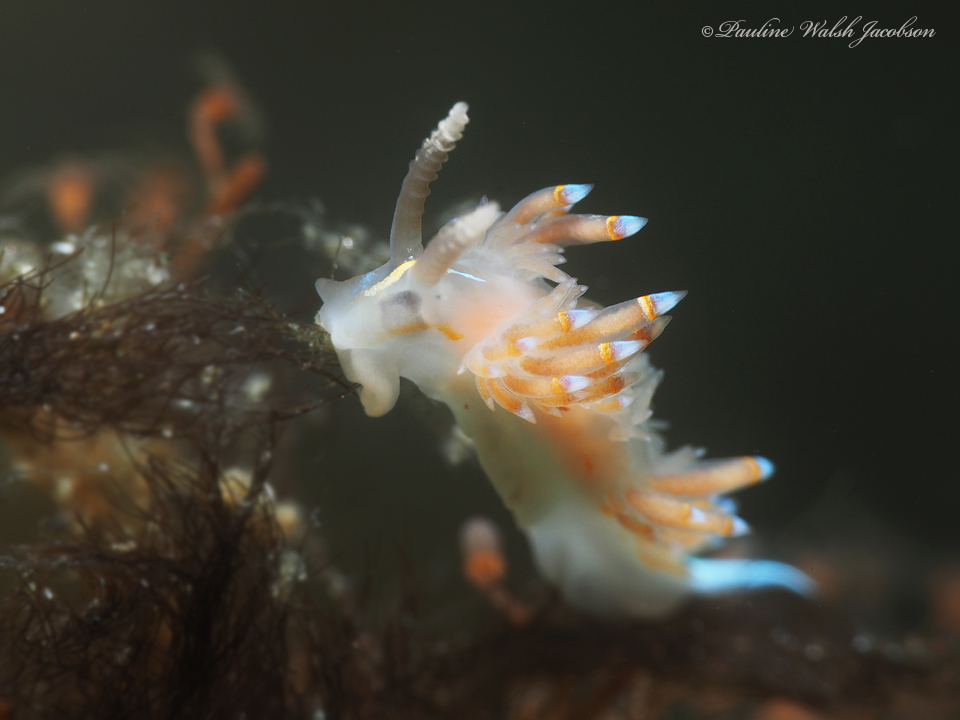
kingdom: Animalia
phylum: Mollusca
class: Gastropoda
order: Nudibranchia
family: Myrrhinidae
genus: Dondice
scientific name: Dondice jupiteriensis
